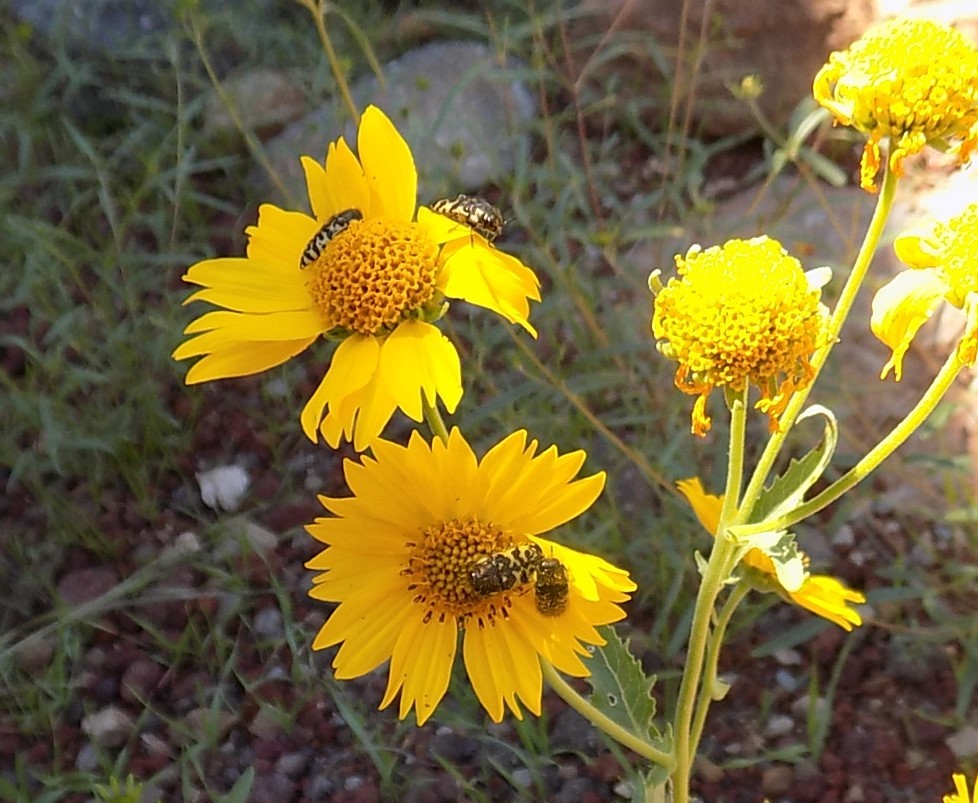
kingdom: Animalia
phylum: Arthropoda
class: Insecta
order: Coleoptera
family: Buprestidae
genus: Acmaeodera
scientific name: Acmaeodera decipiens
